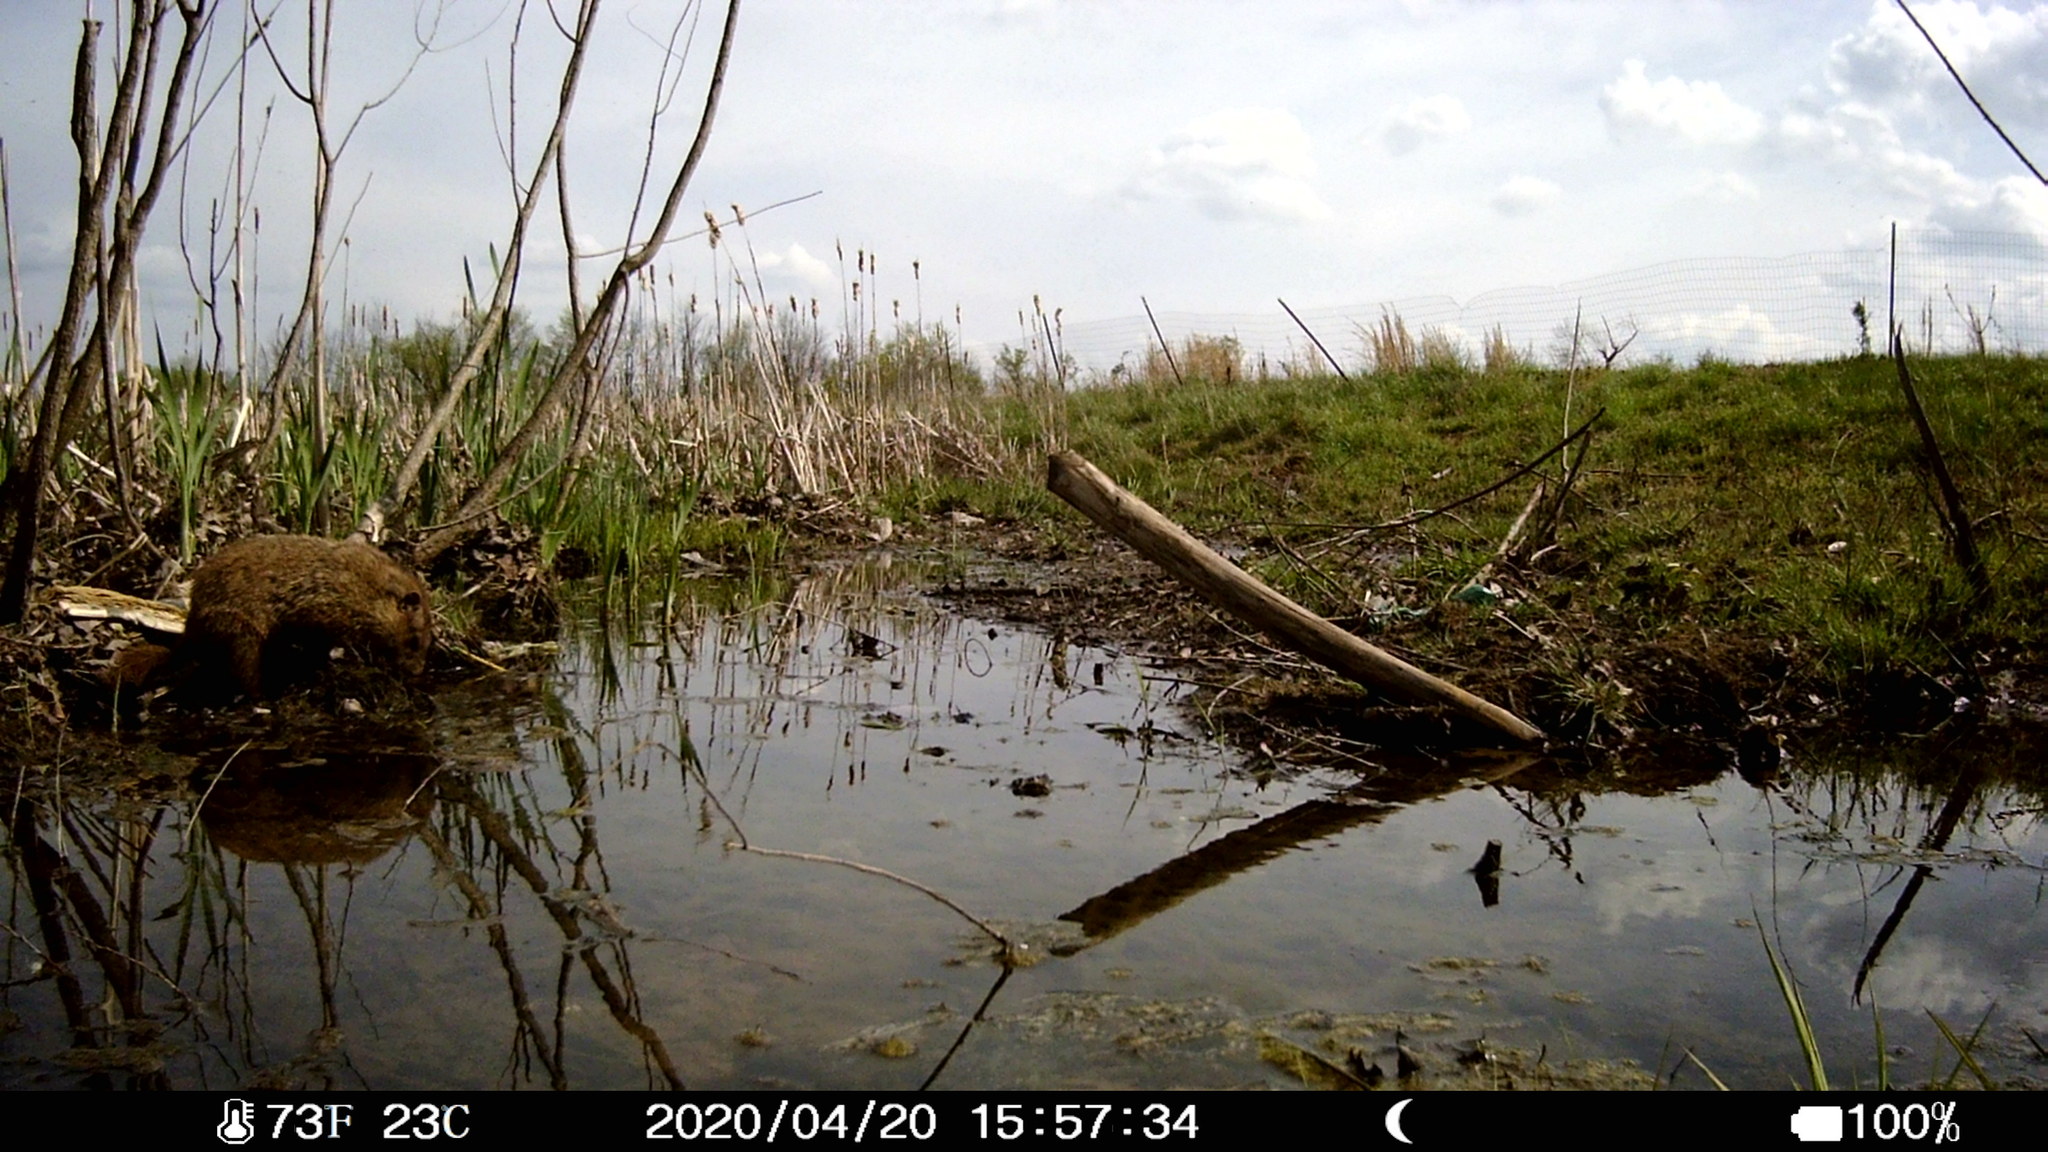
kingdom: Animalia
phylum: Chordata
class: Mammalia
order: Rodentia
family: Sciuridae
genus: Marmota
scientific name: Marmota monax
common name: Groundhog
